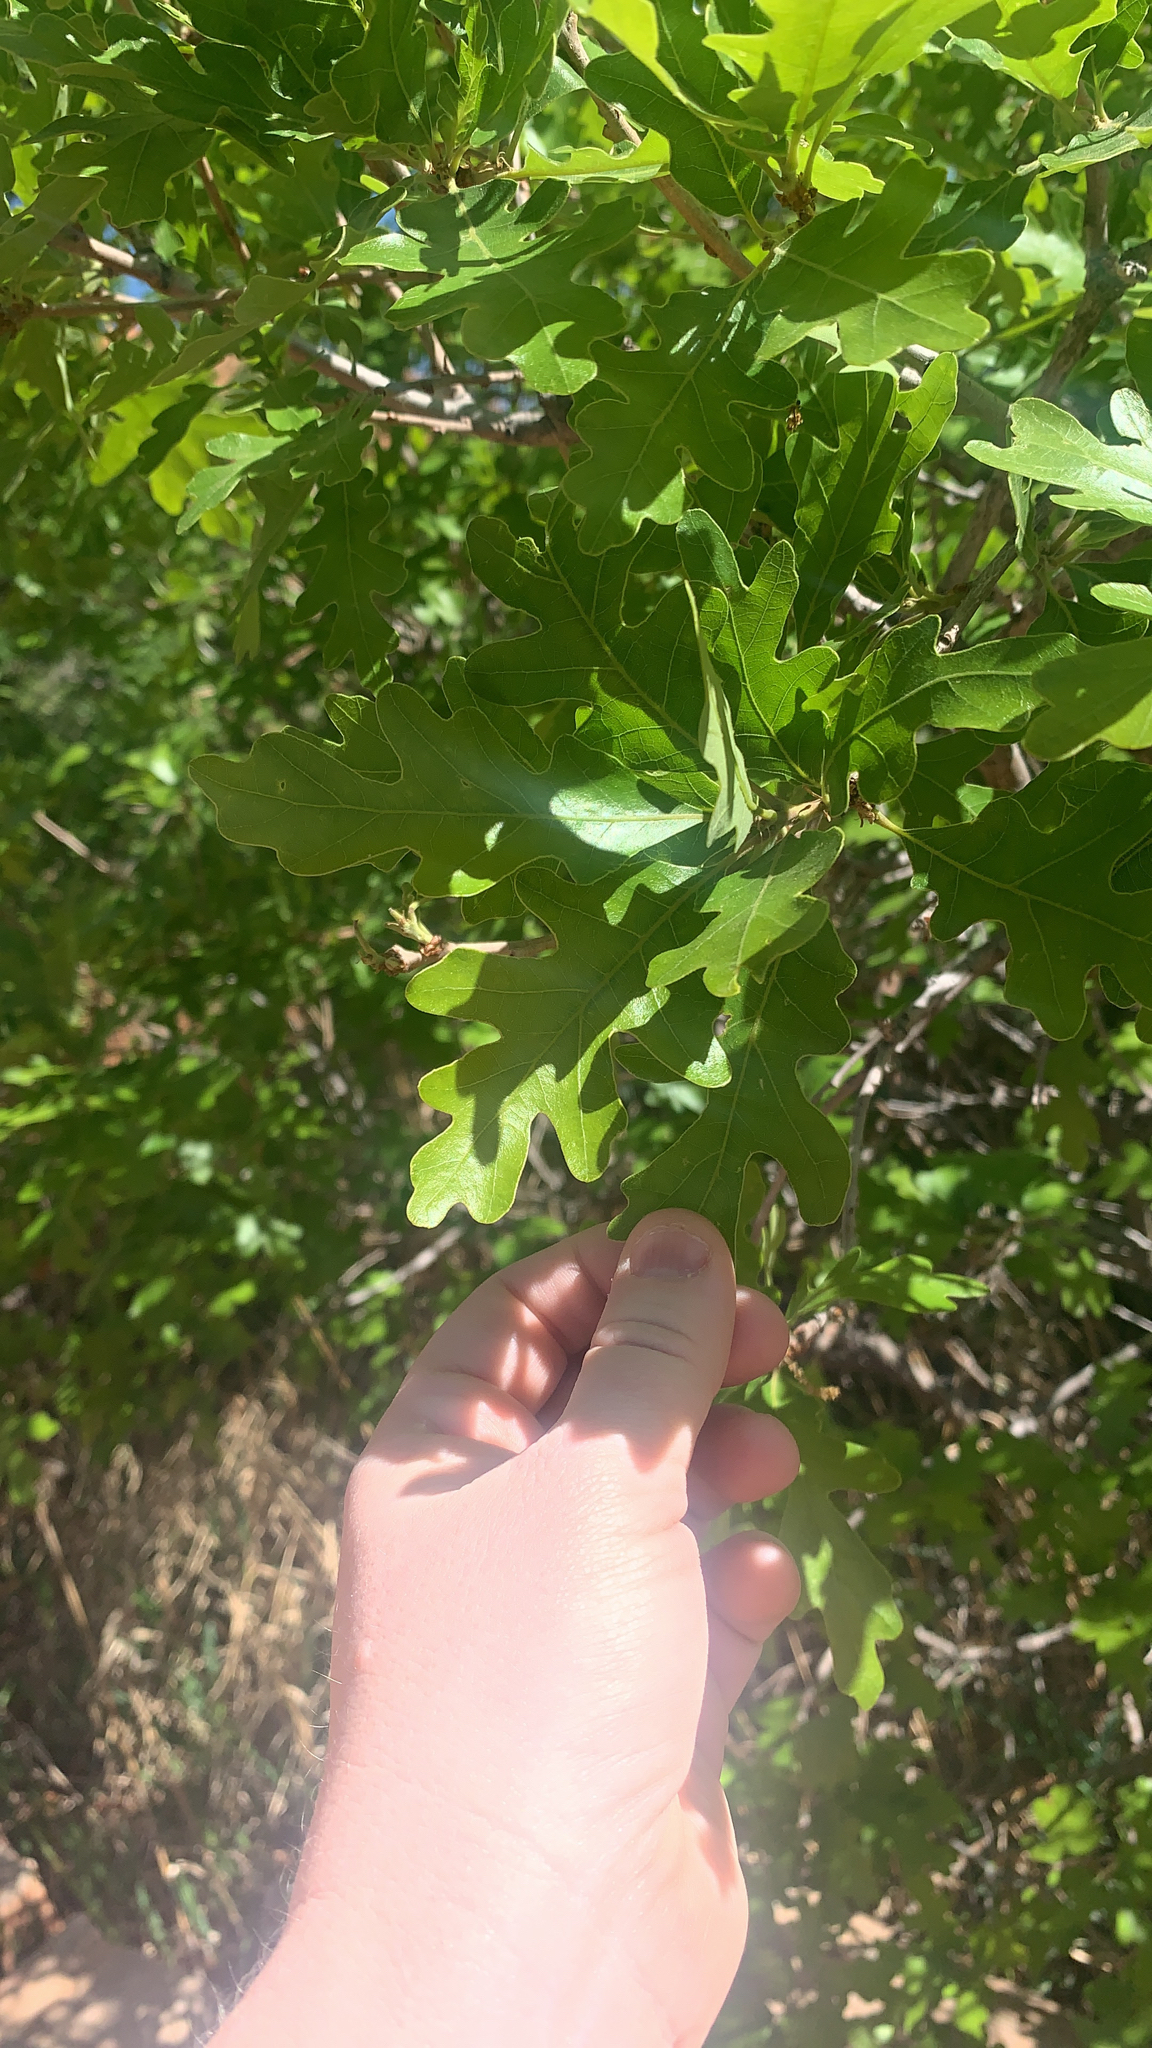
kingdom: Plantae
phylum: Tracheophyta
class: Magnoliopsida
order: Fagales
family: Fagaceae
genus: Quercus
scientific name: Quercus gambelii
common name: Gambel oak
